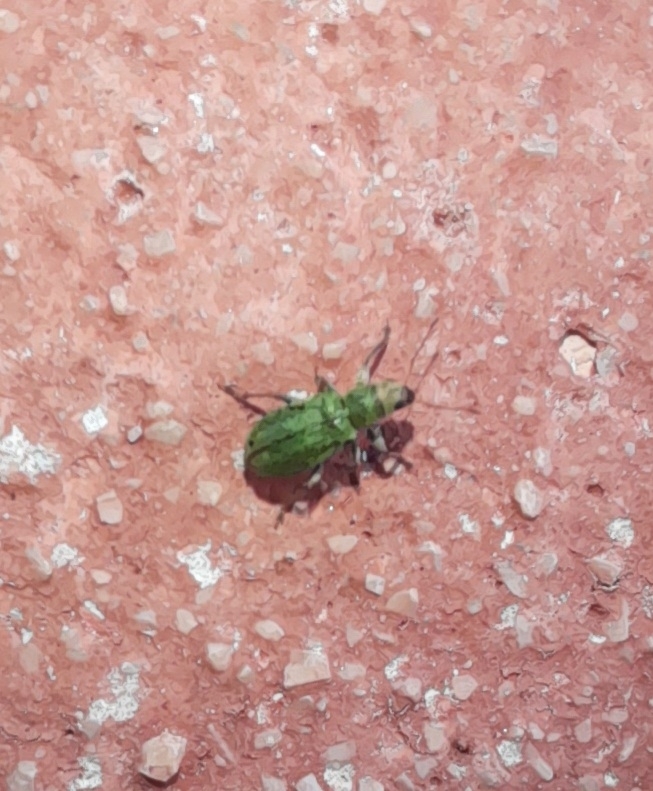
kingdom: Animalia
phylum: Arthropoda
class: Insecta
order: Coleoptera
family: Curculionidae
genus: Pachyrhinus
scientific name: Pachyrhinus lethierryi
